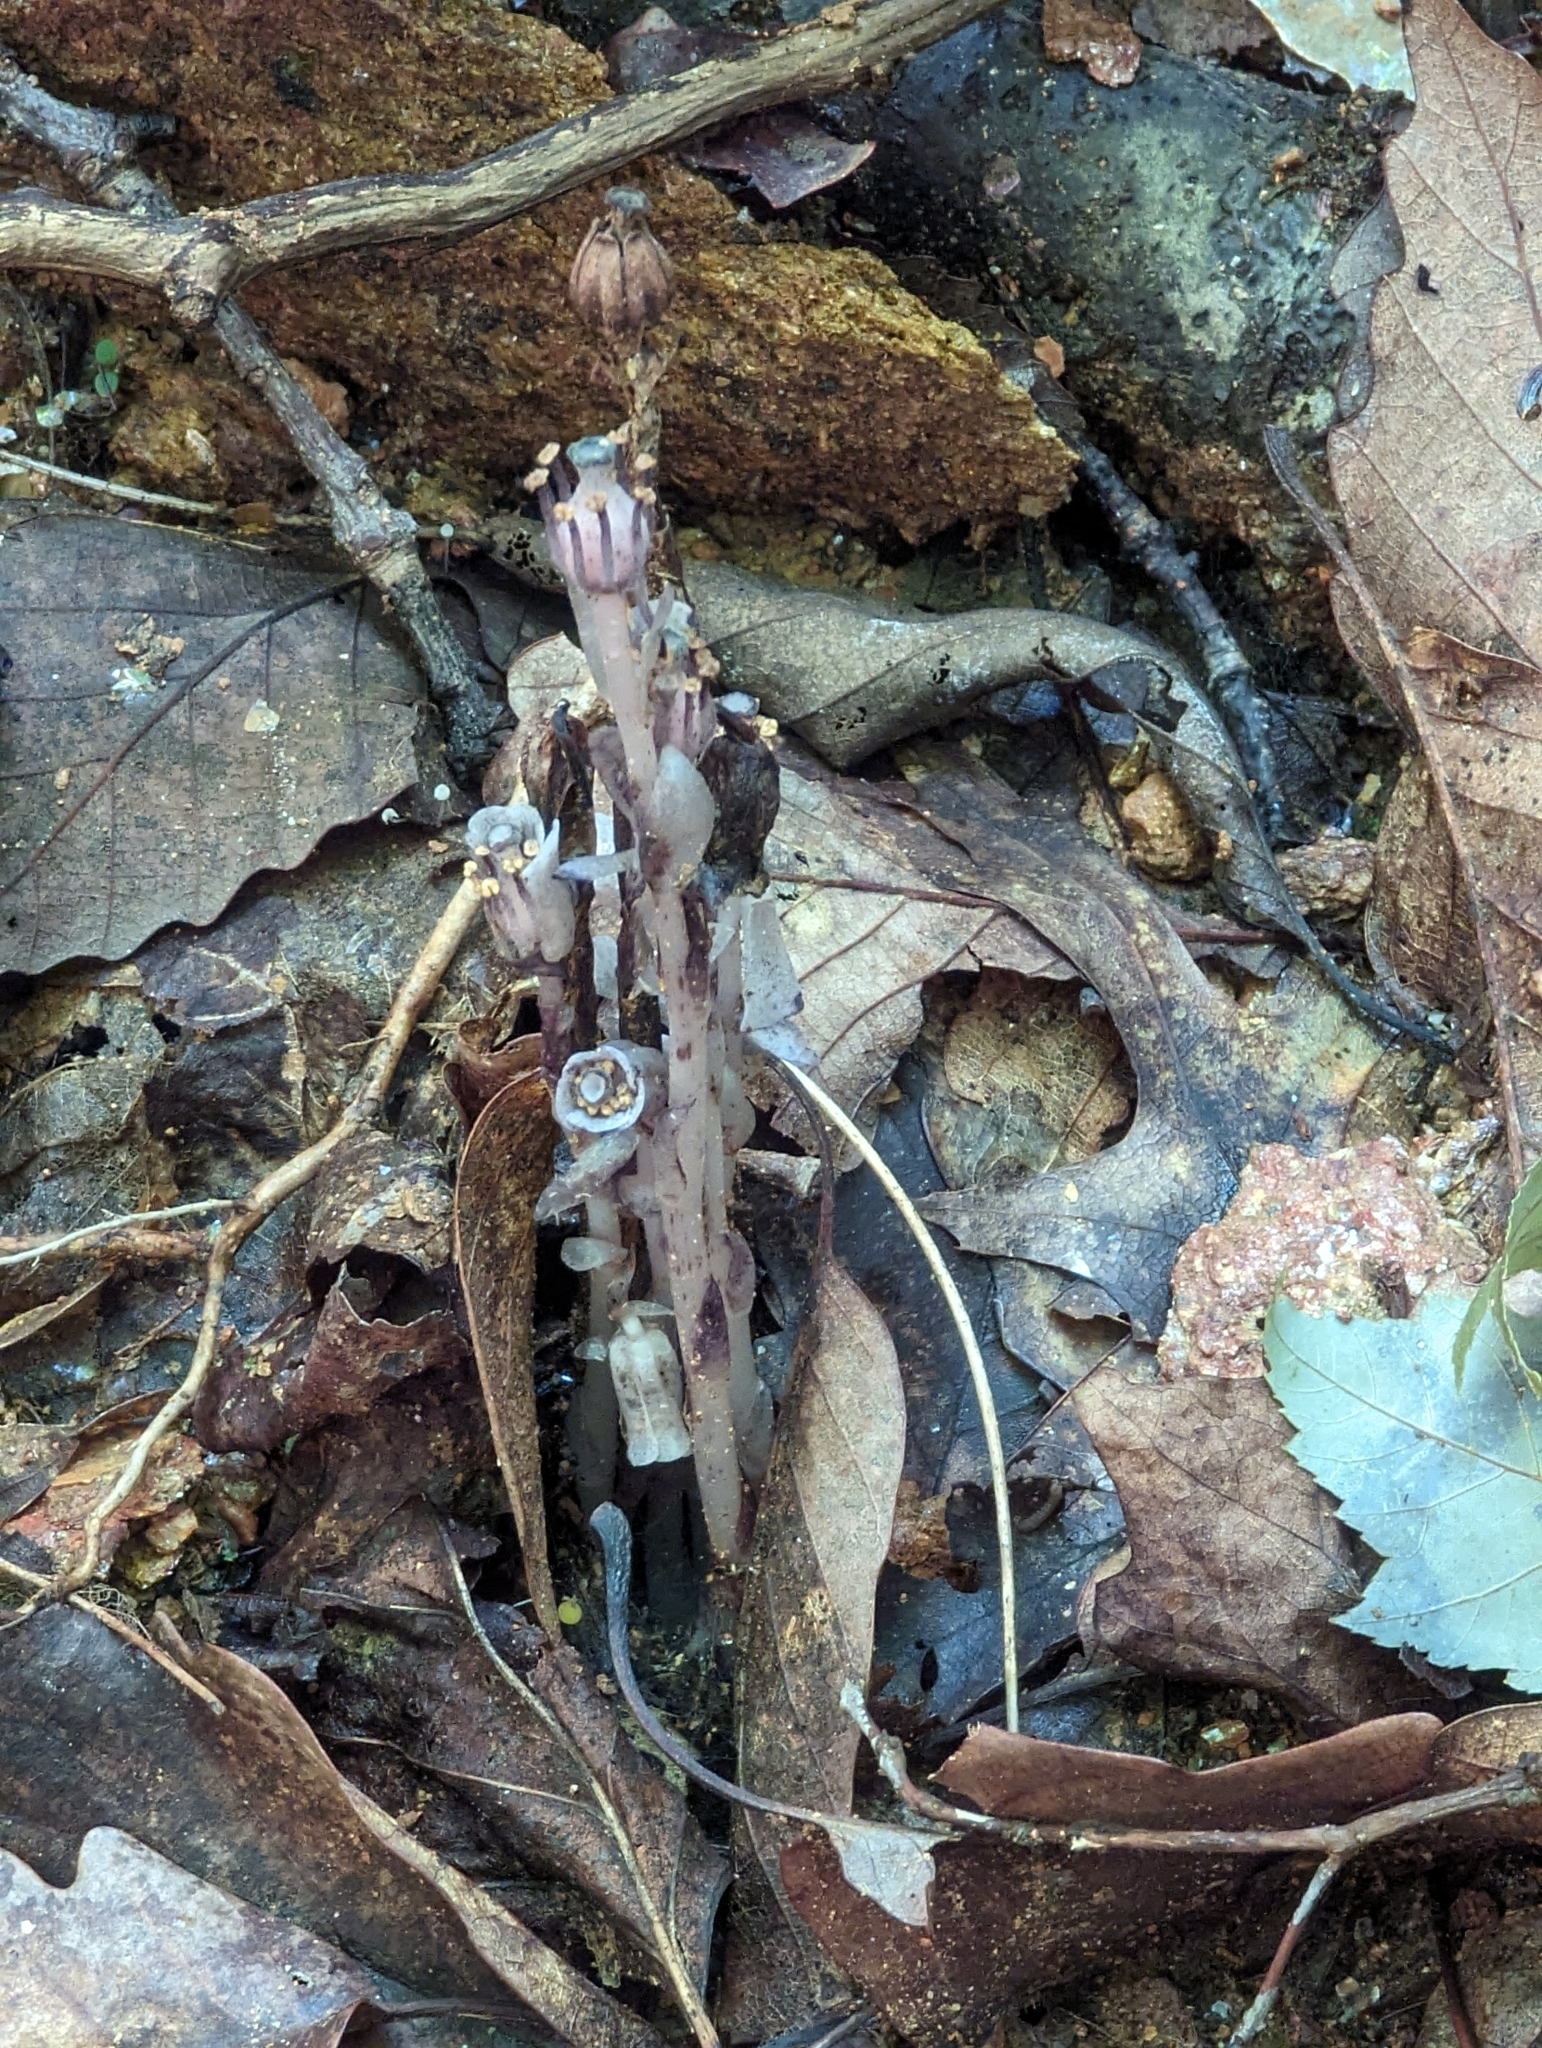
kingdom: Plantae
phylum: Tracheophyta
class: Magnoliopsida
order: Ericales
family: Ericaceae
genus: Monotropa
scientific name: Monotropa uniflora
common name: Convulsion root
